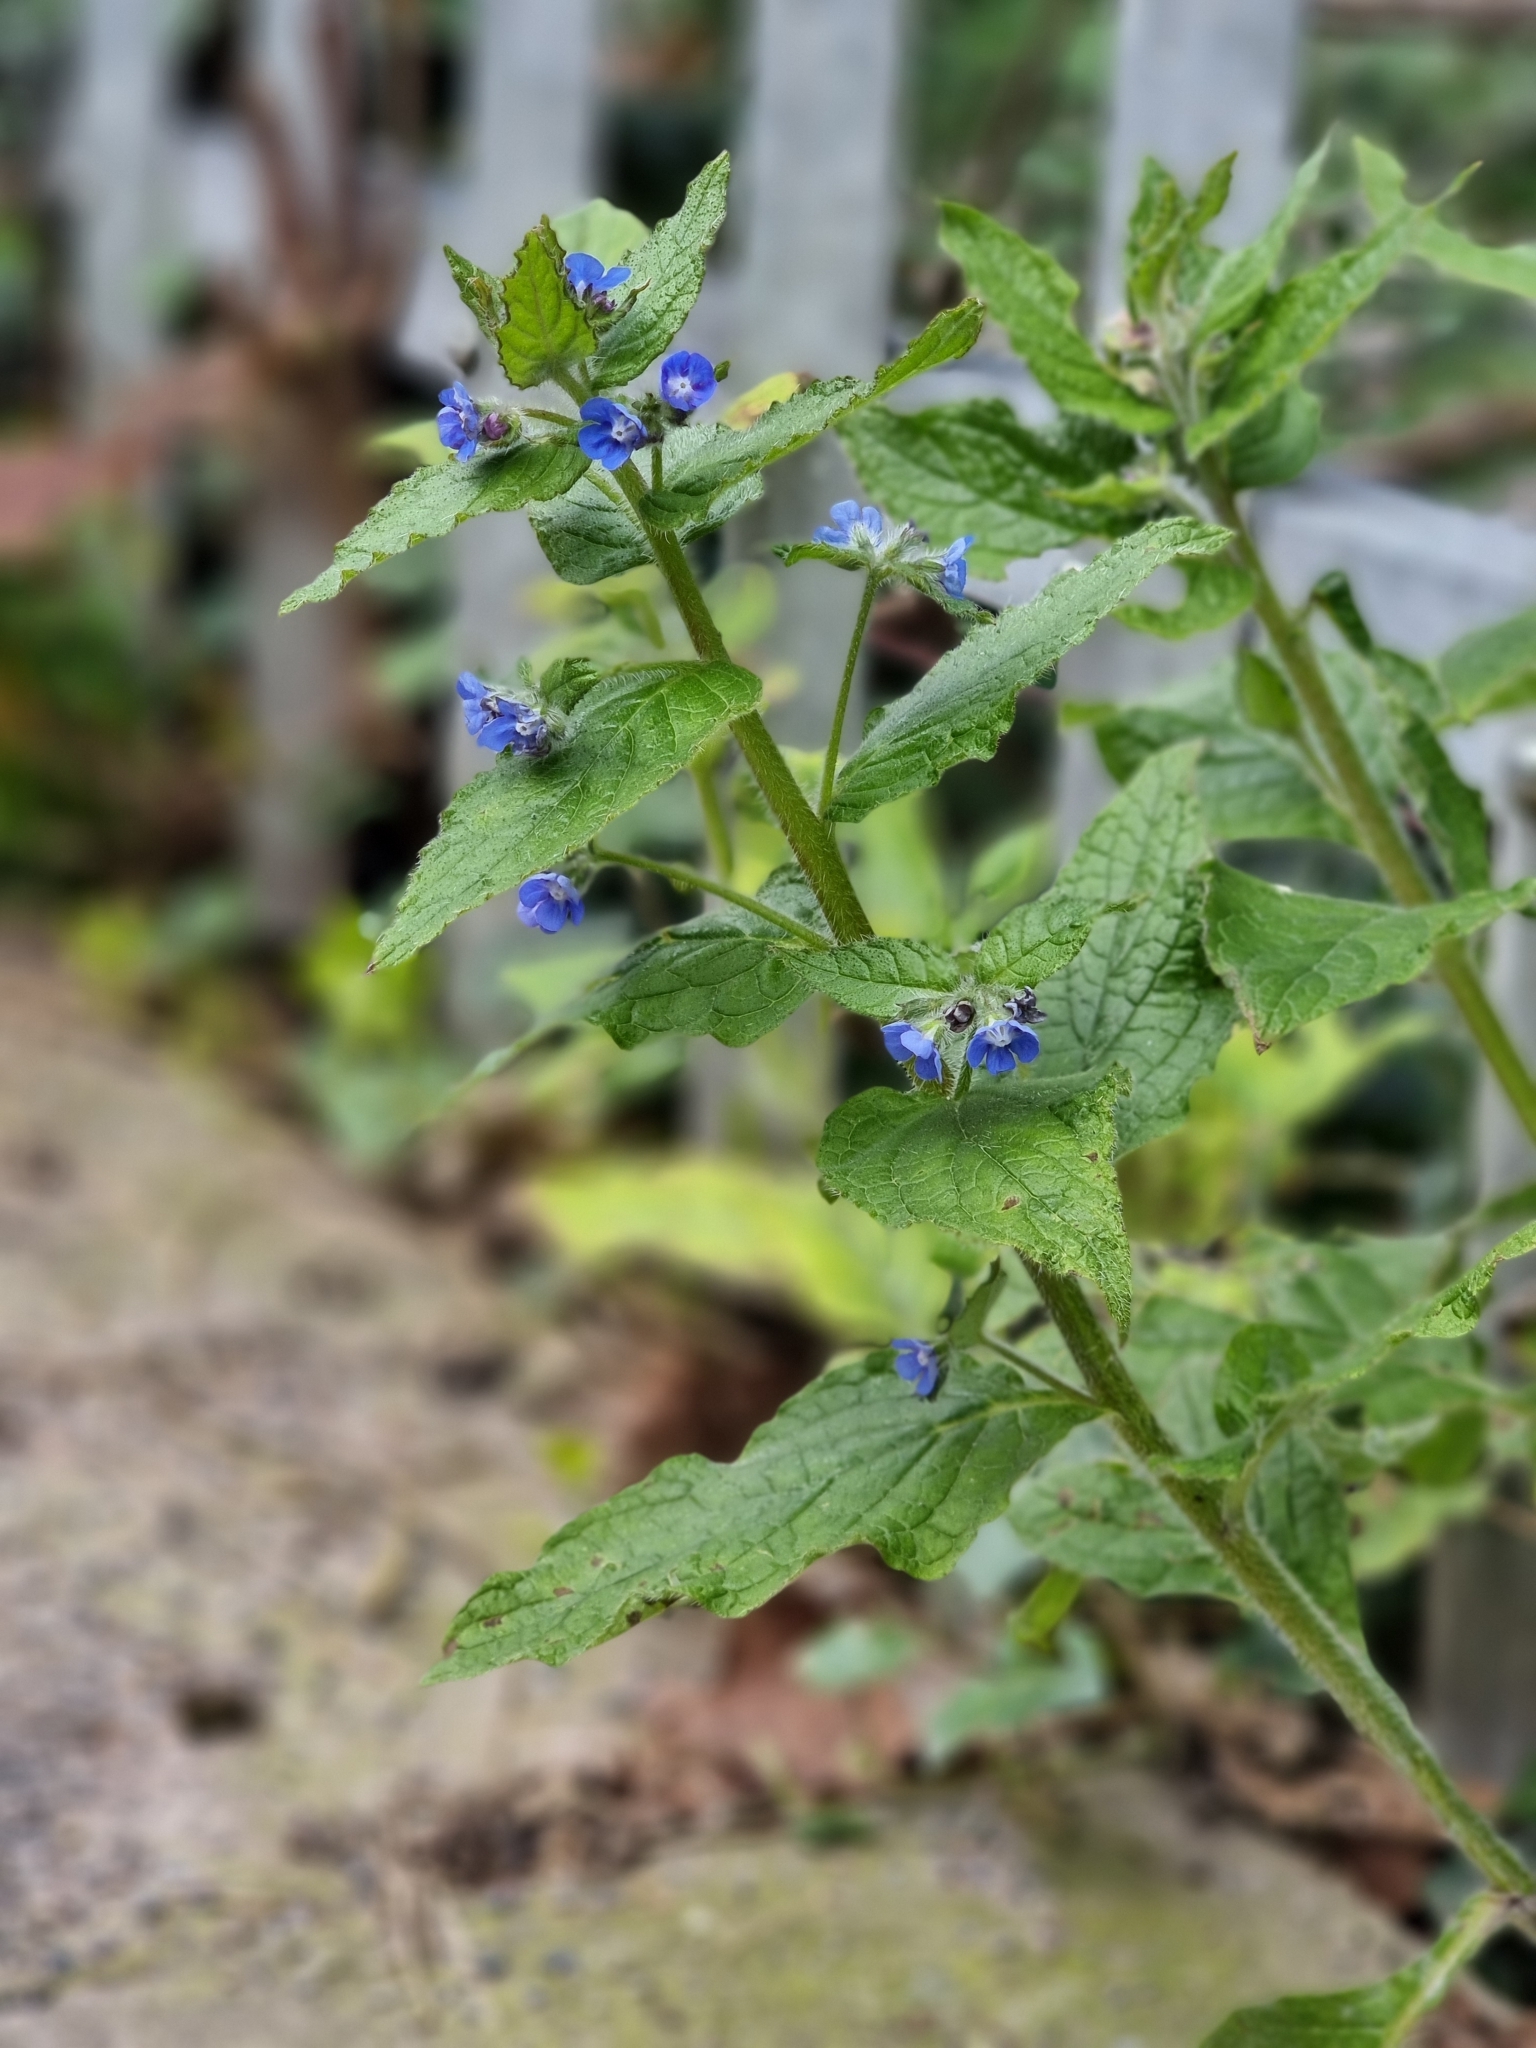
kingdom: Plantae
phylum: Tracheophyta
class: Magnoliopsida
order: Boraginales
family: Boraginaceae
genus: Pentaglottis
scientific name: Pentaglottis sempervirens
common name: Green alkanet
